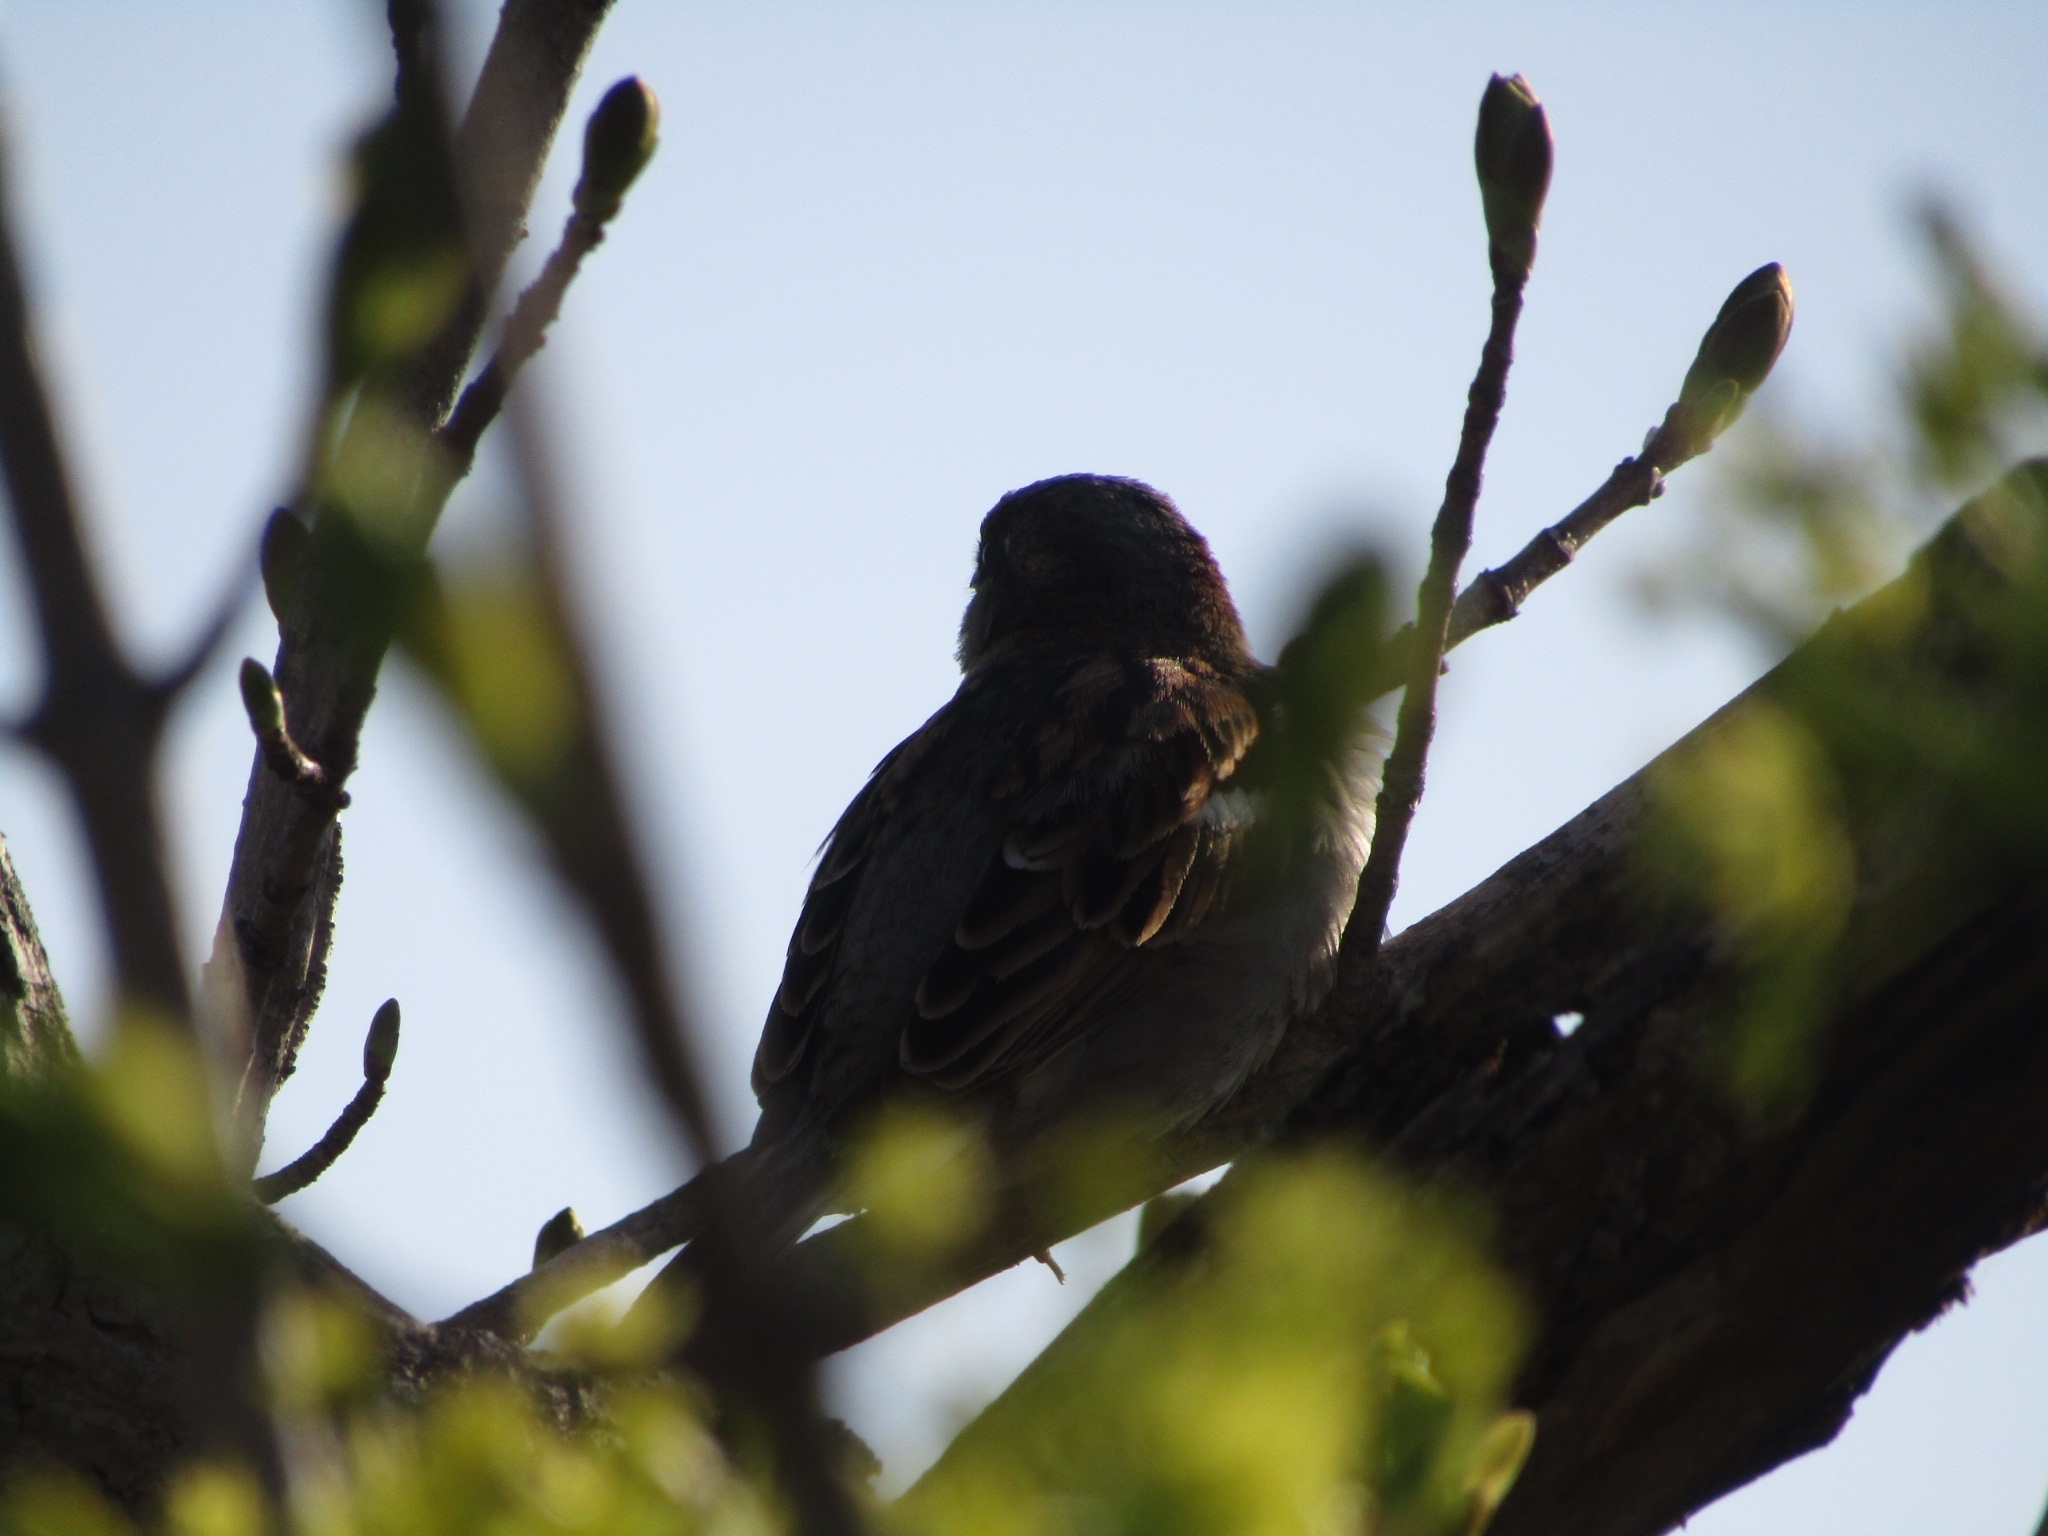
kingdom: Animalia
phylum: Chordata
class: Aves
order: Passeriformes
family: Passeridae
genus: Passer
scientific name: Passer domesticus
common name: House sparrow
